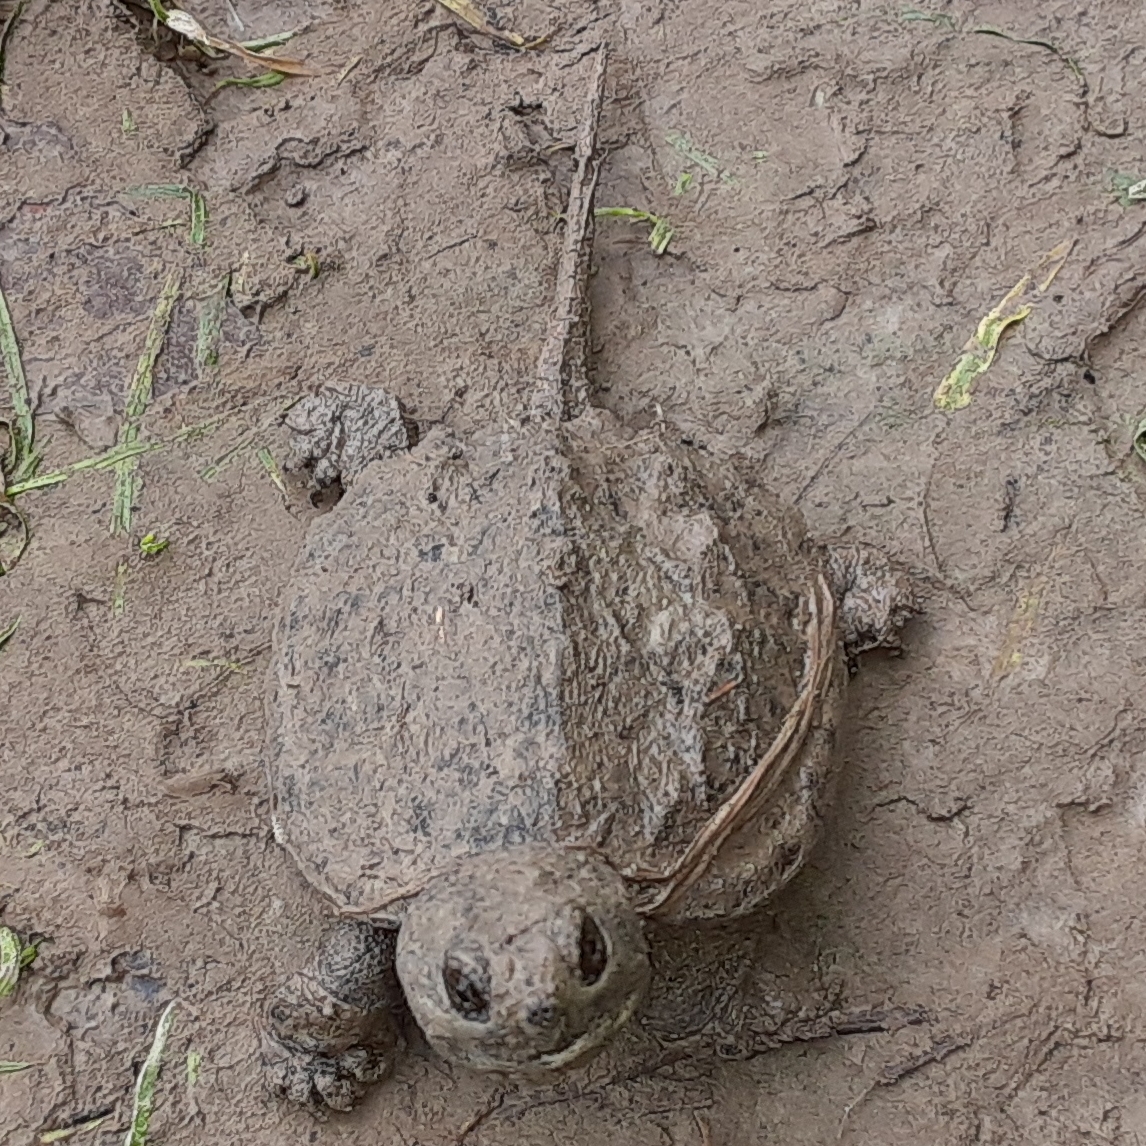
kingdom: Animalia
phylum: Chordata
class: Testudines
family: Chelydridae
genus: Chelydra
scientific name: Chelydra serpentina
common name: Common snapping turtle
